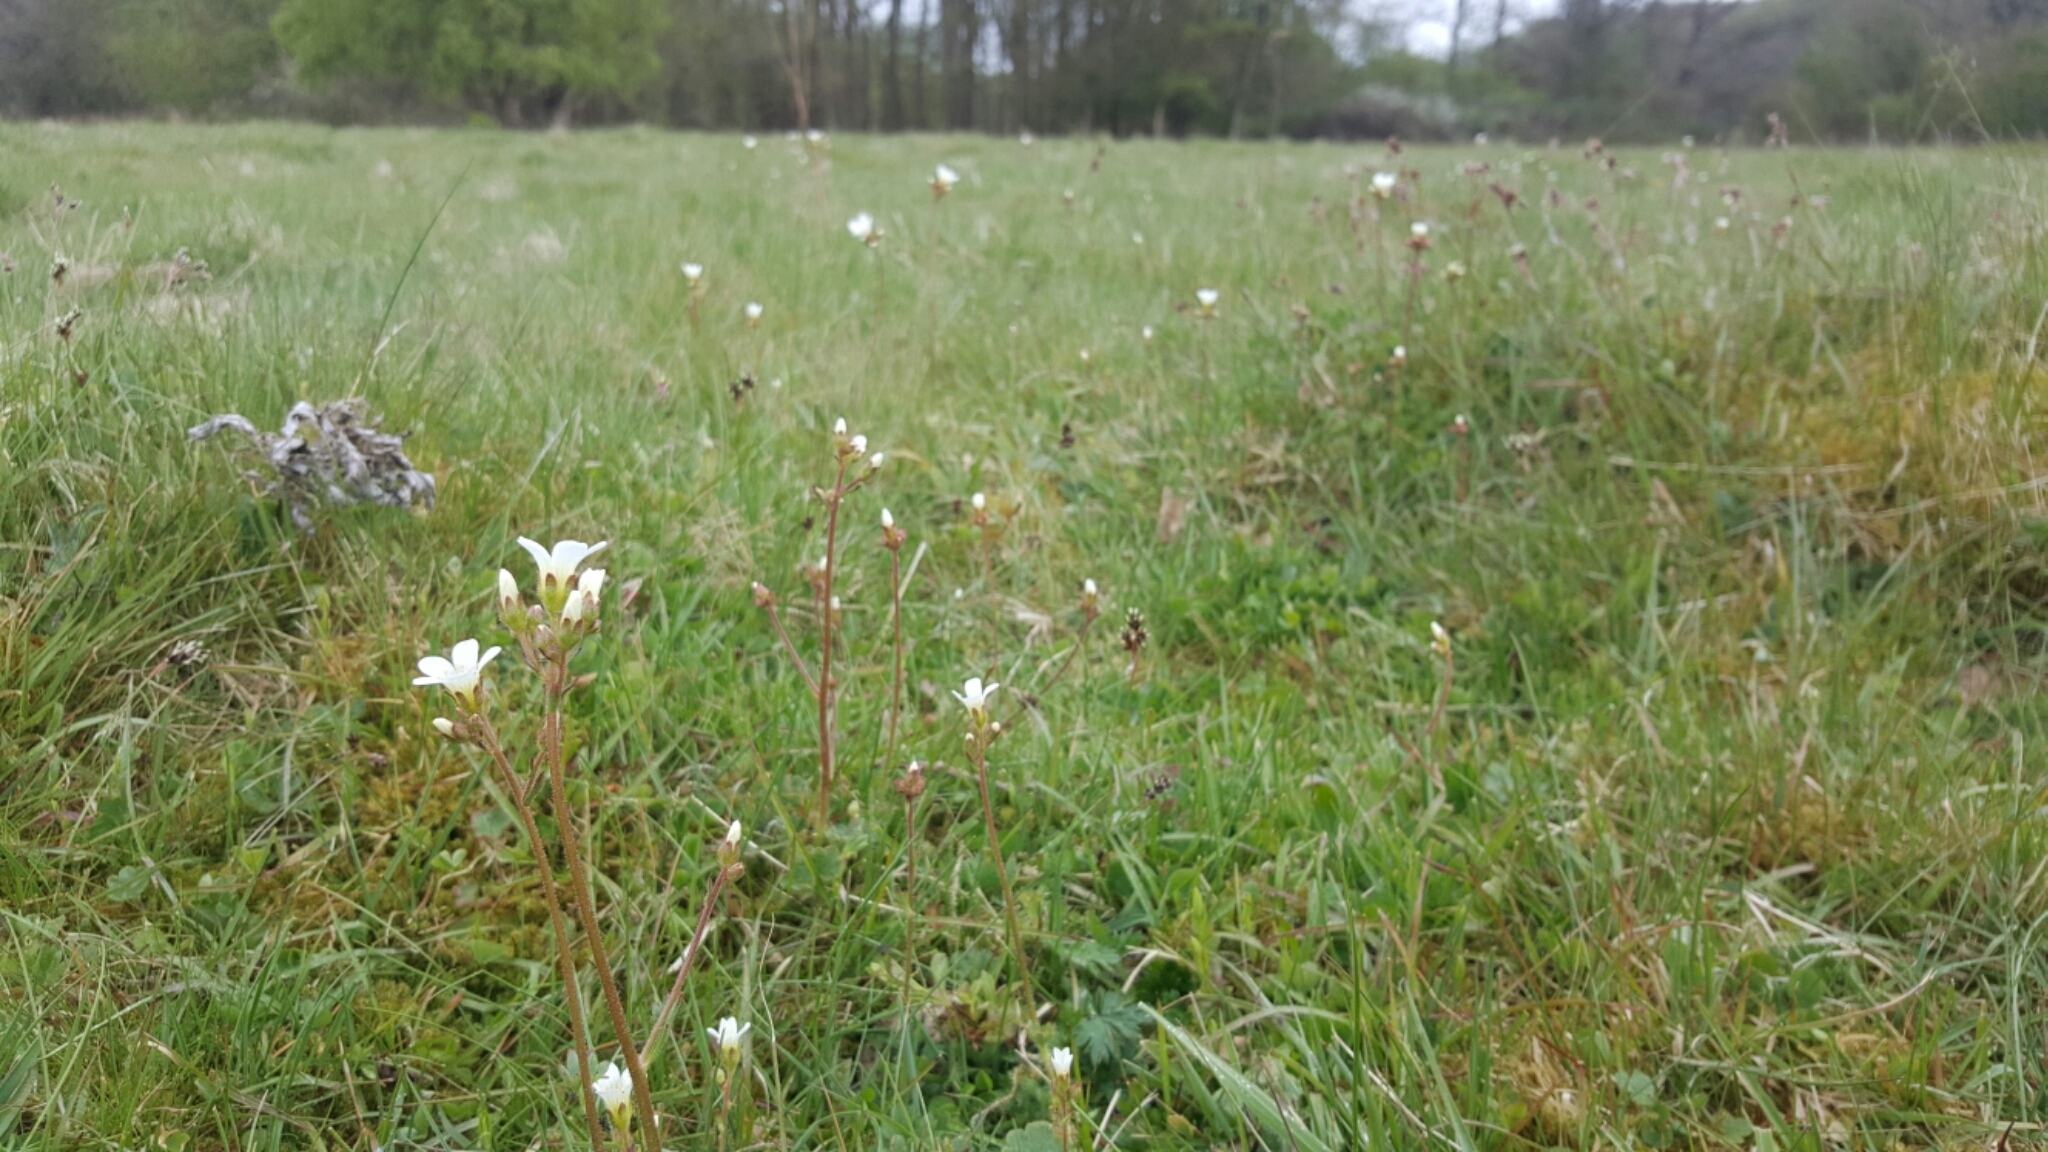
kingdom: Plantae
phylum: Tracheophyta
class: Magnoliopsida
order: Saxifragales
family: Saxifragaceae
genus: Saxifraga
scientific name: Saxifraga granulata
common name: Meadow saxifrage
